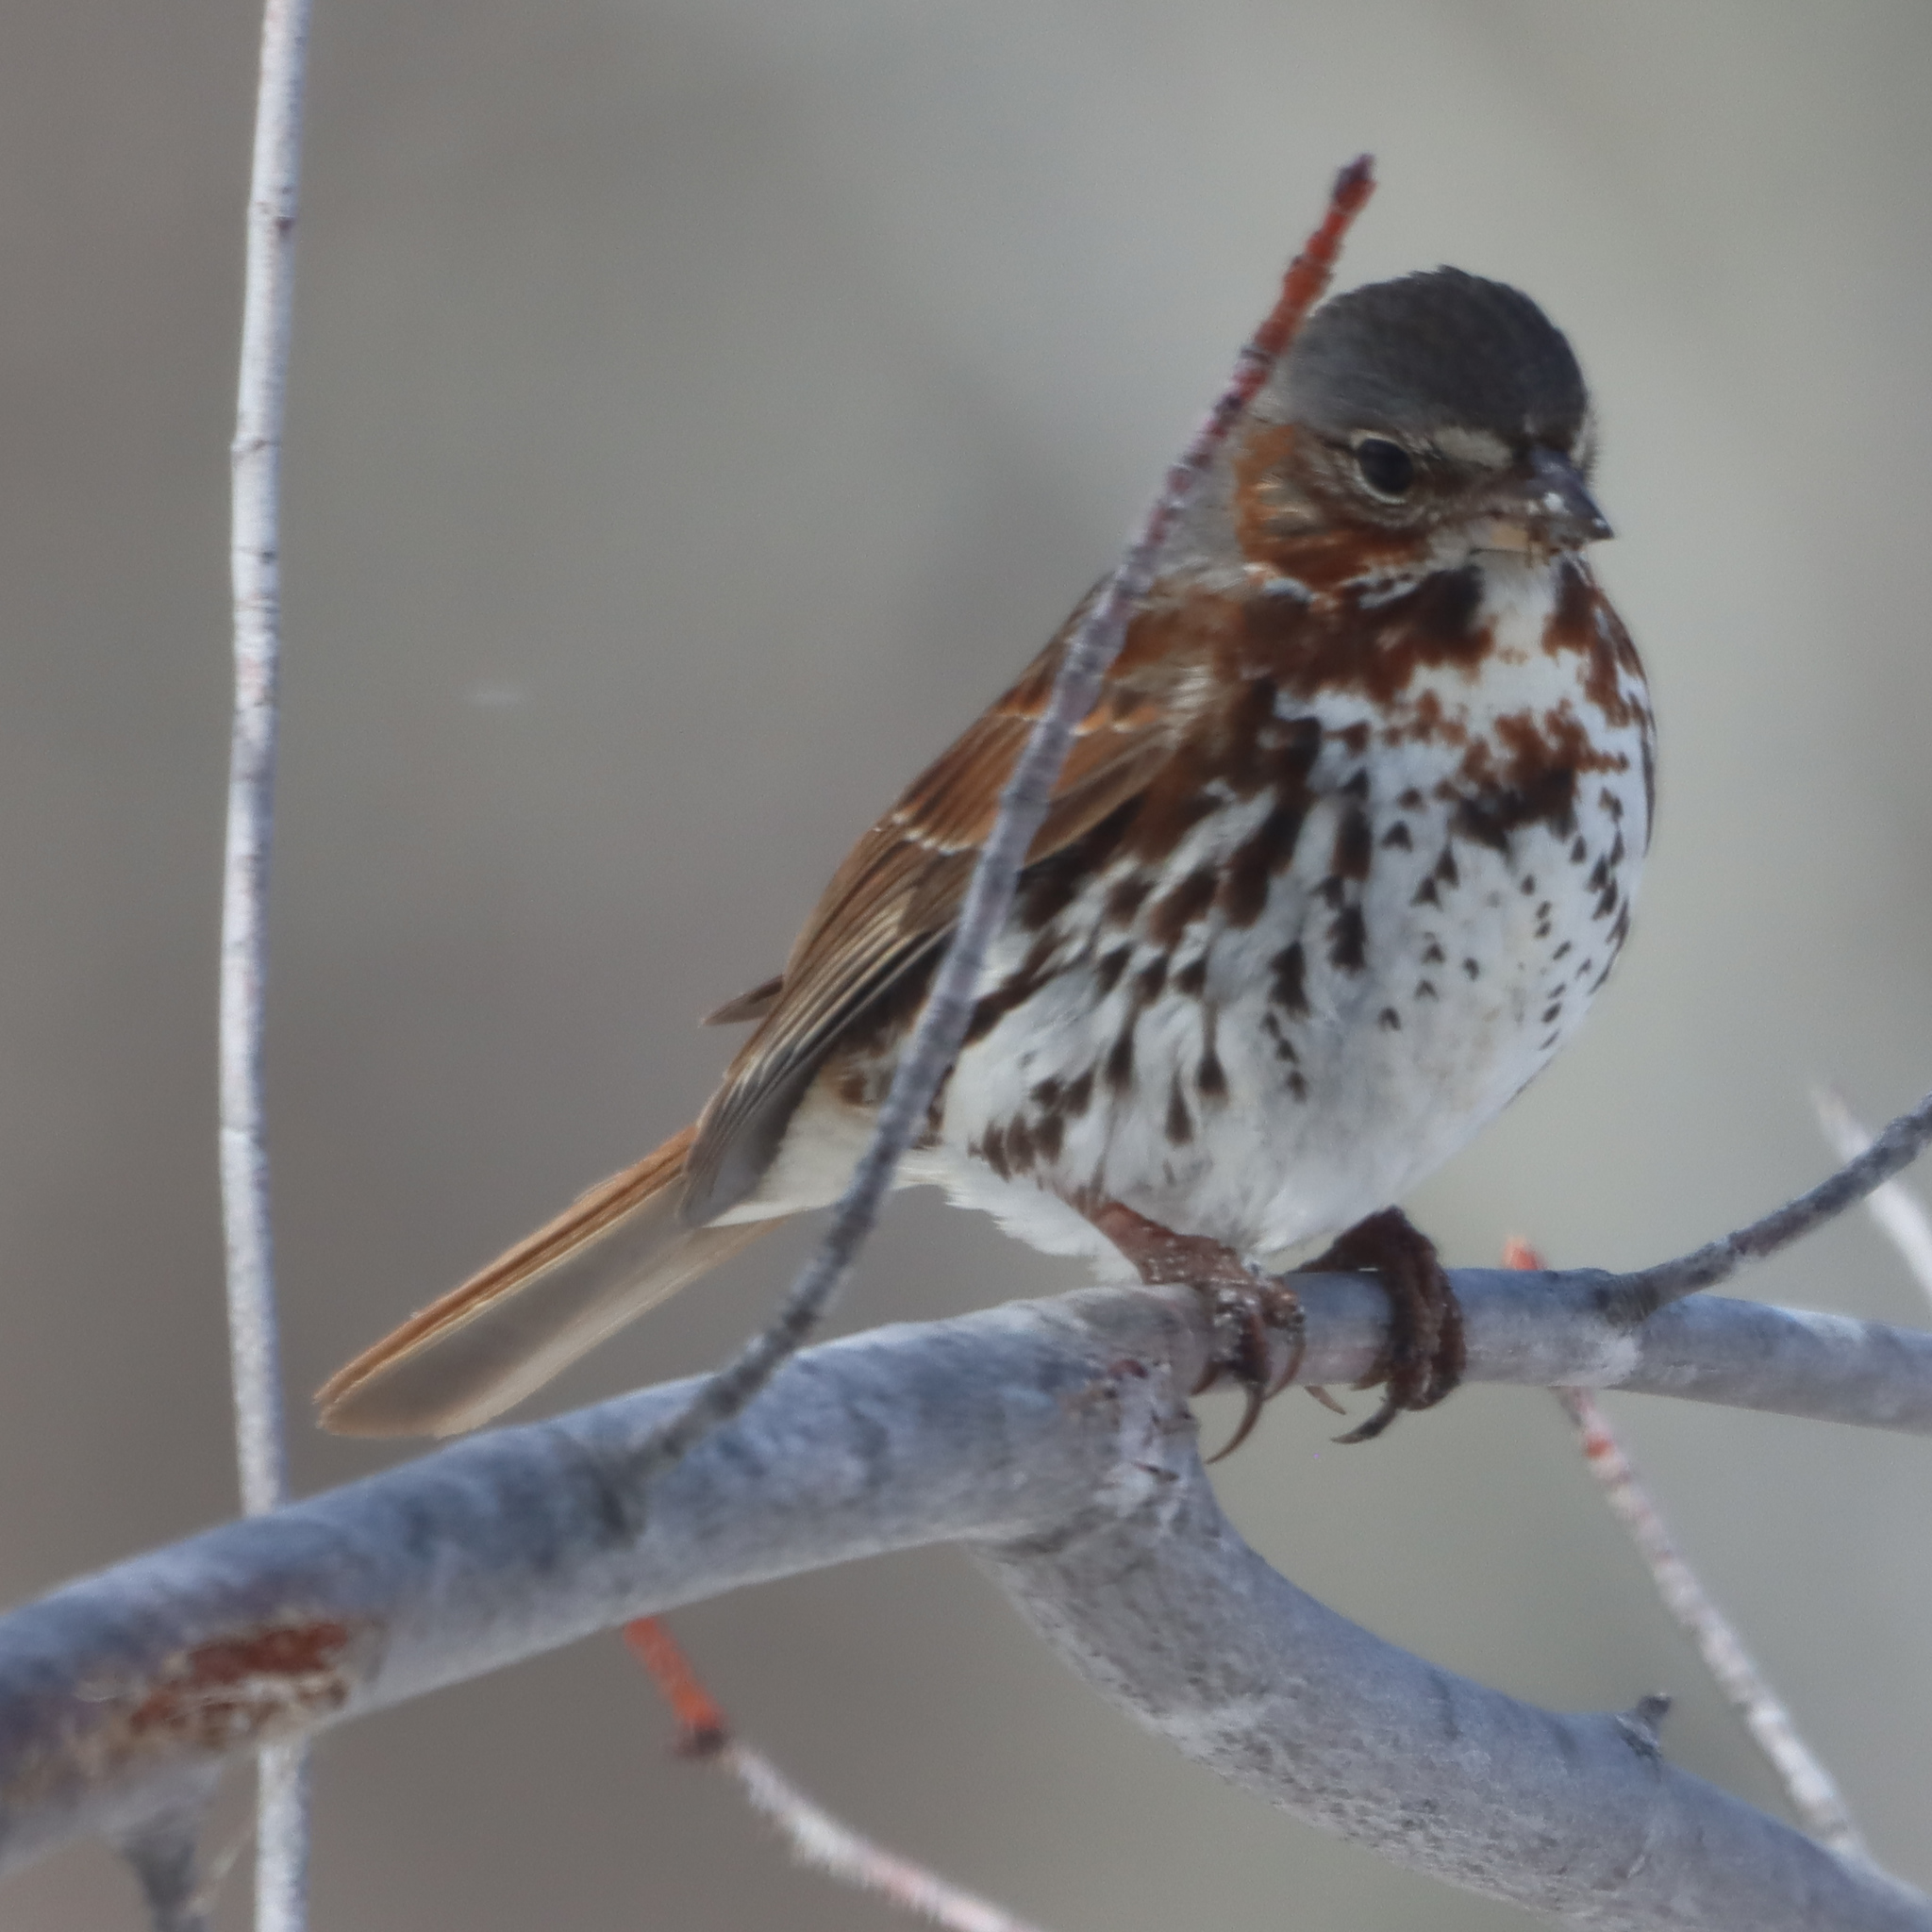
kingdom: Animalia
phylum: Chordata
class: Aves
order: Passeriformes
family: Passerellidae
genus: Passerella
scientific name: Passerella iliaca
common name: Fox sparrow
